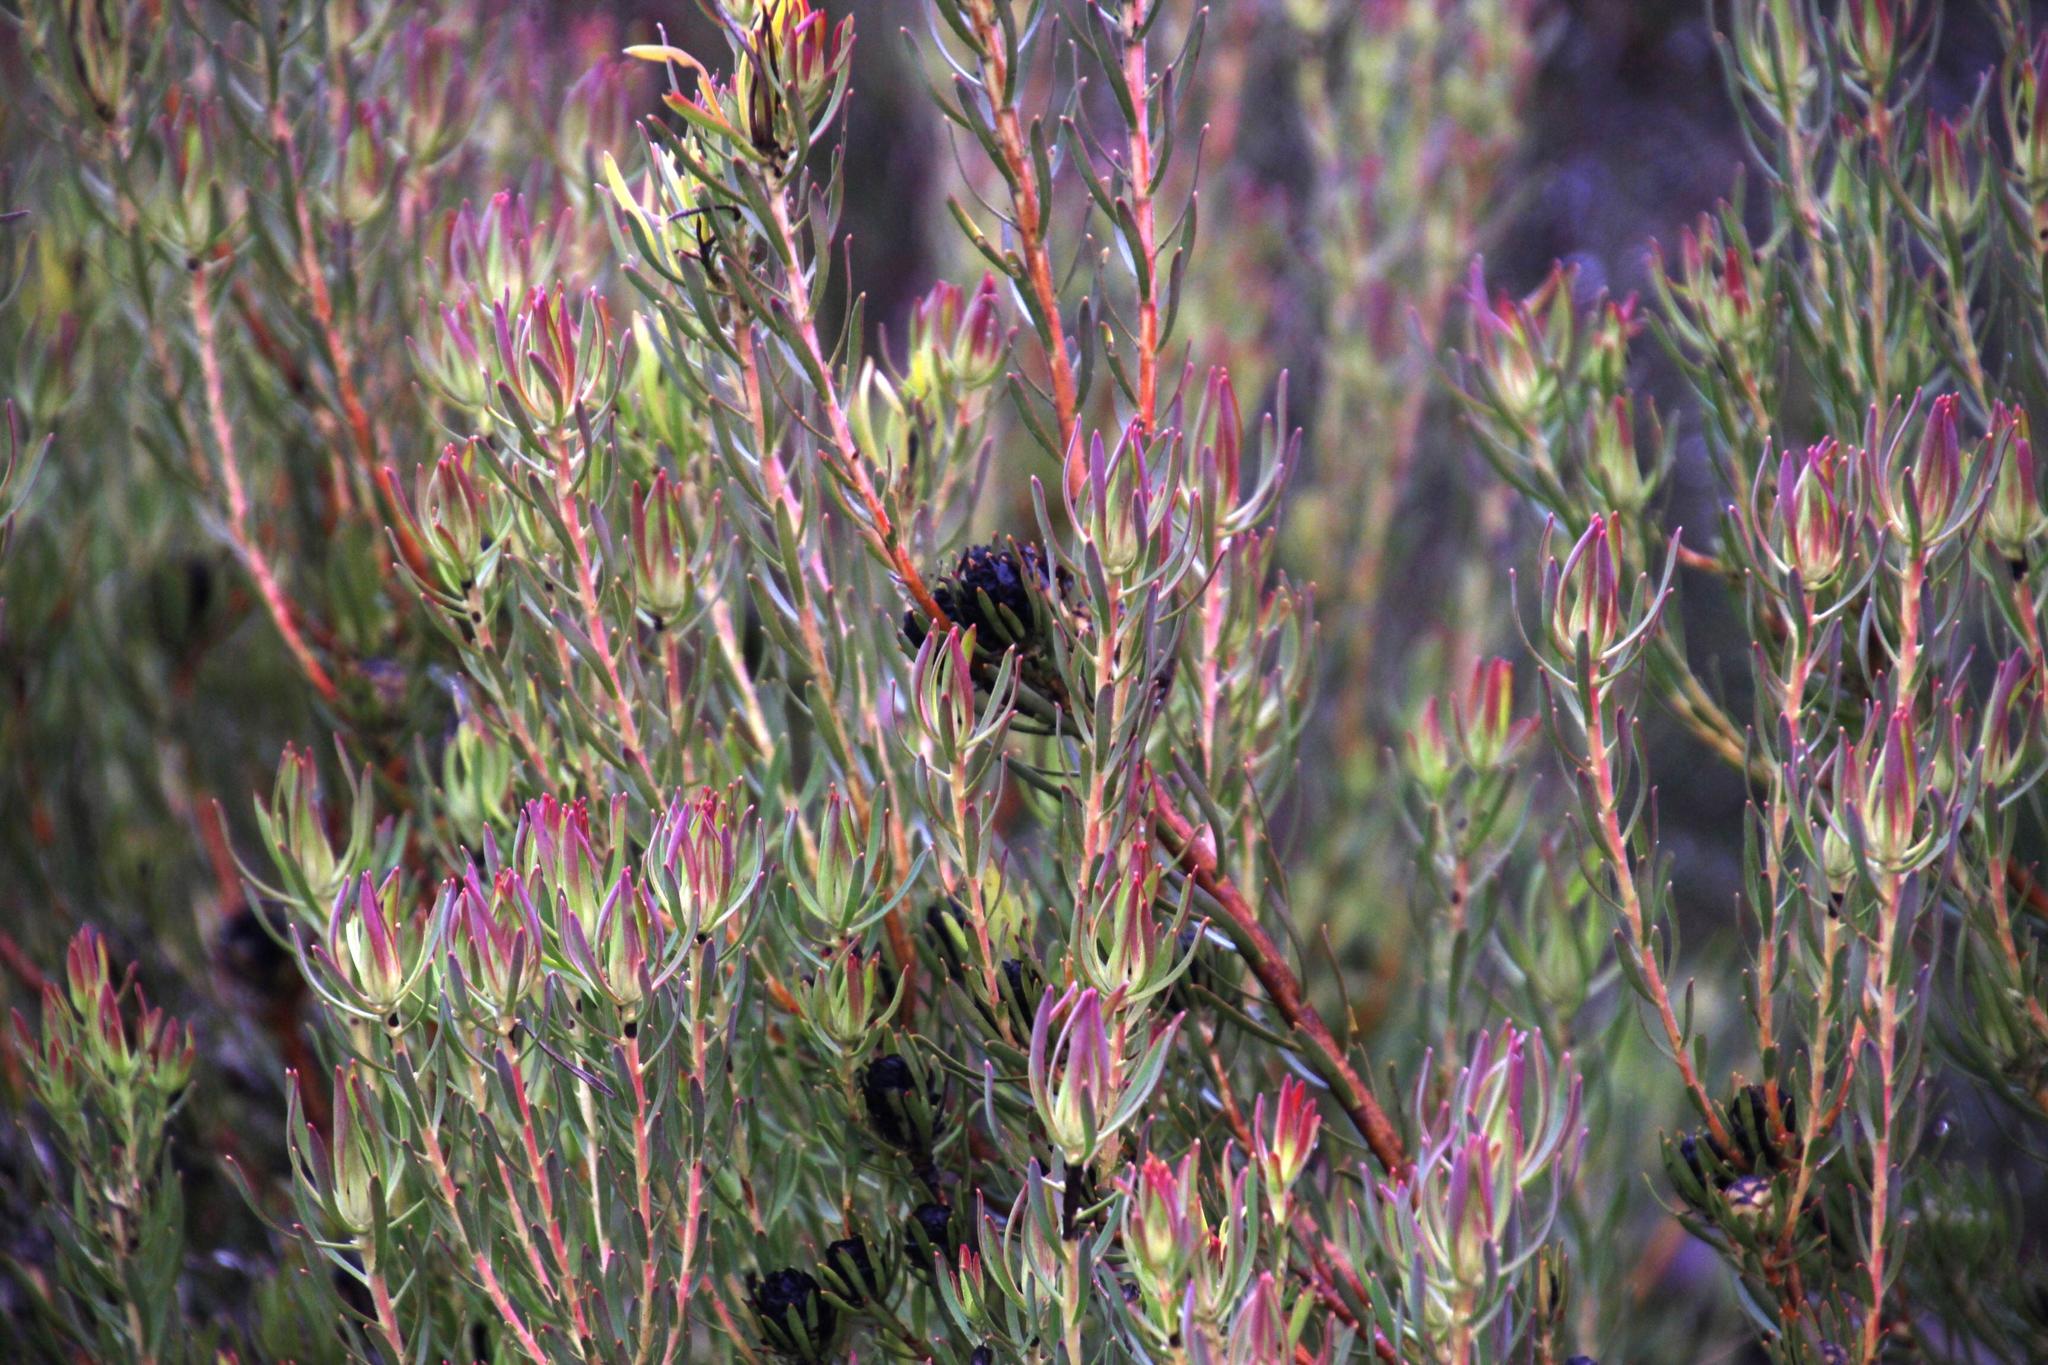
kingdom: Plantae
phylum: Tracheophyta
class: Magnoliopsida
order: Proteales
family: Proteaceae
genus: Leucadendron
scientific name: Leucadendron lanigerum
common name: Shale conebush
